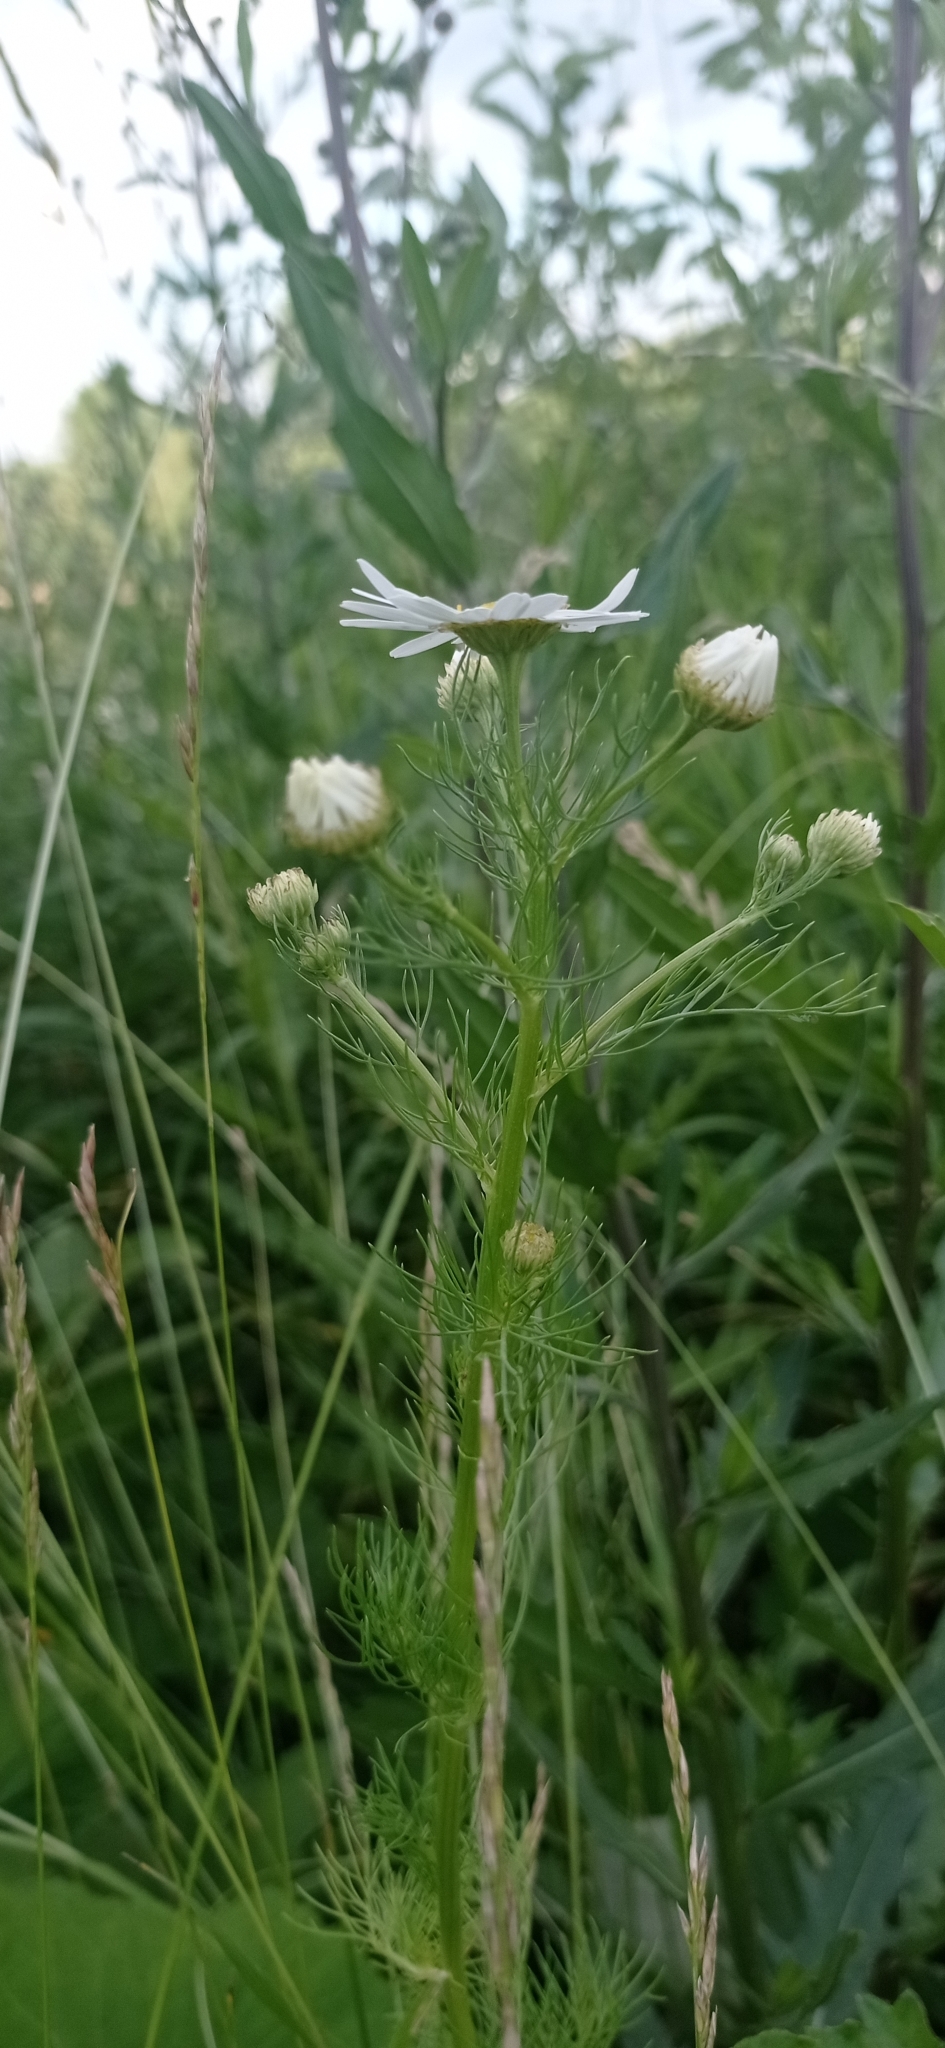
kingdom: Plantae
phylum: Tracheophyta
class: Magnoliopsida
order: Asterales
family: Asteraceae
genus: Tripleurospermum
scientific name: Tripleurospermum inodorum
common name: Scentless mayweed
